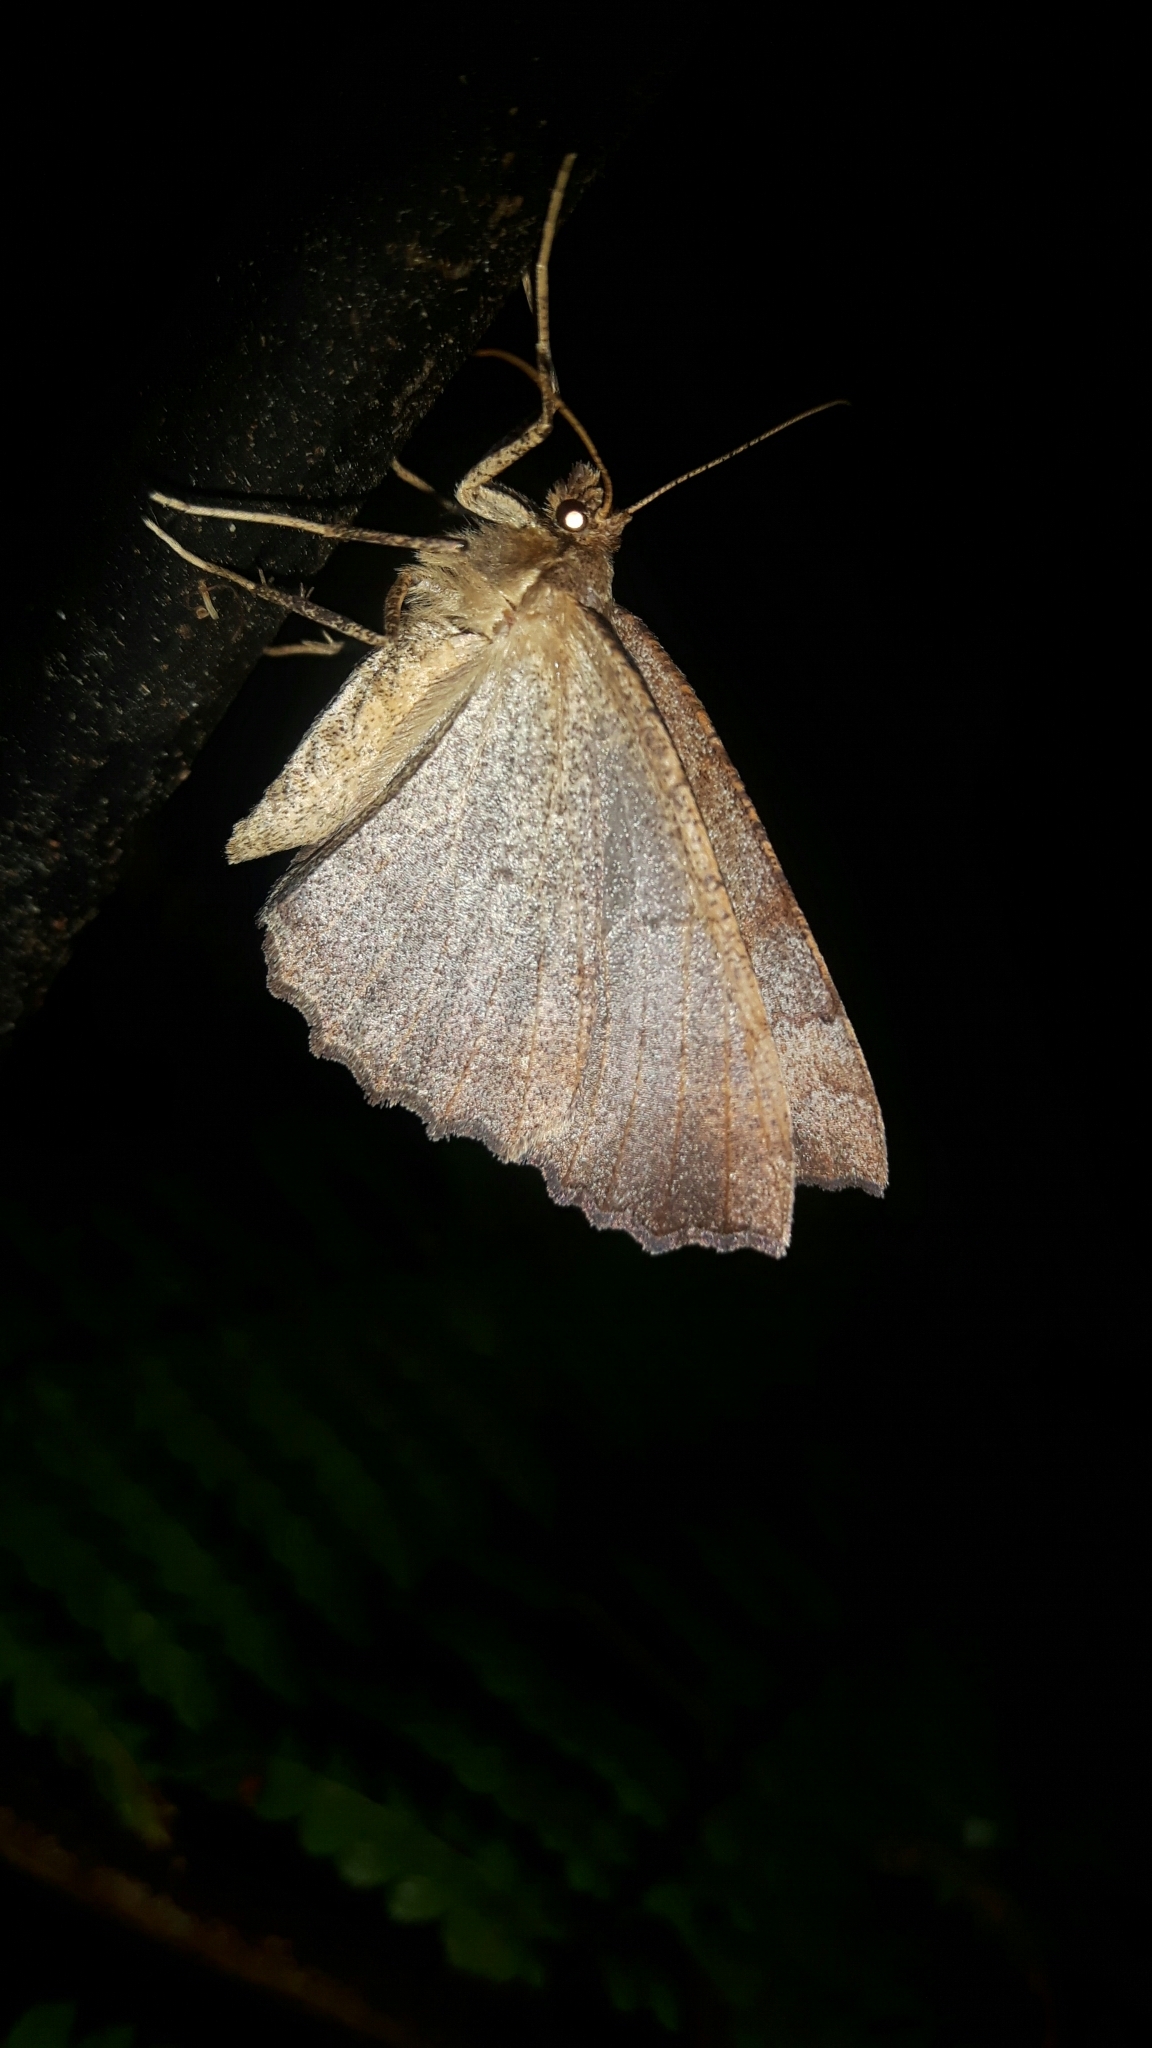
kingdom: Animalia
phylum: Arthropoda
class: Insecta
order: Lepidoptera
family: Geometridae
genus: Cleora
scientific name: Cleora scriptaria
